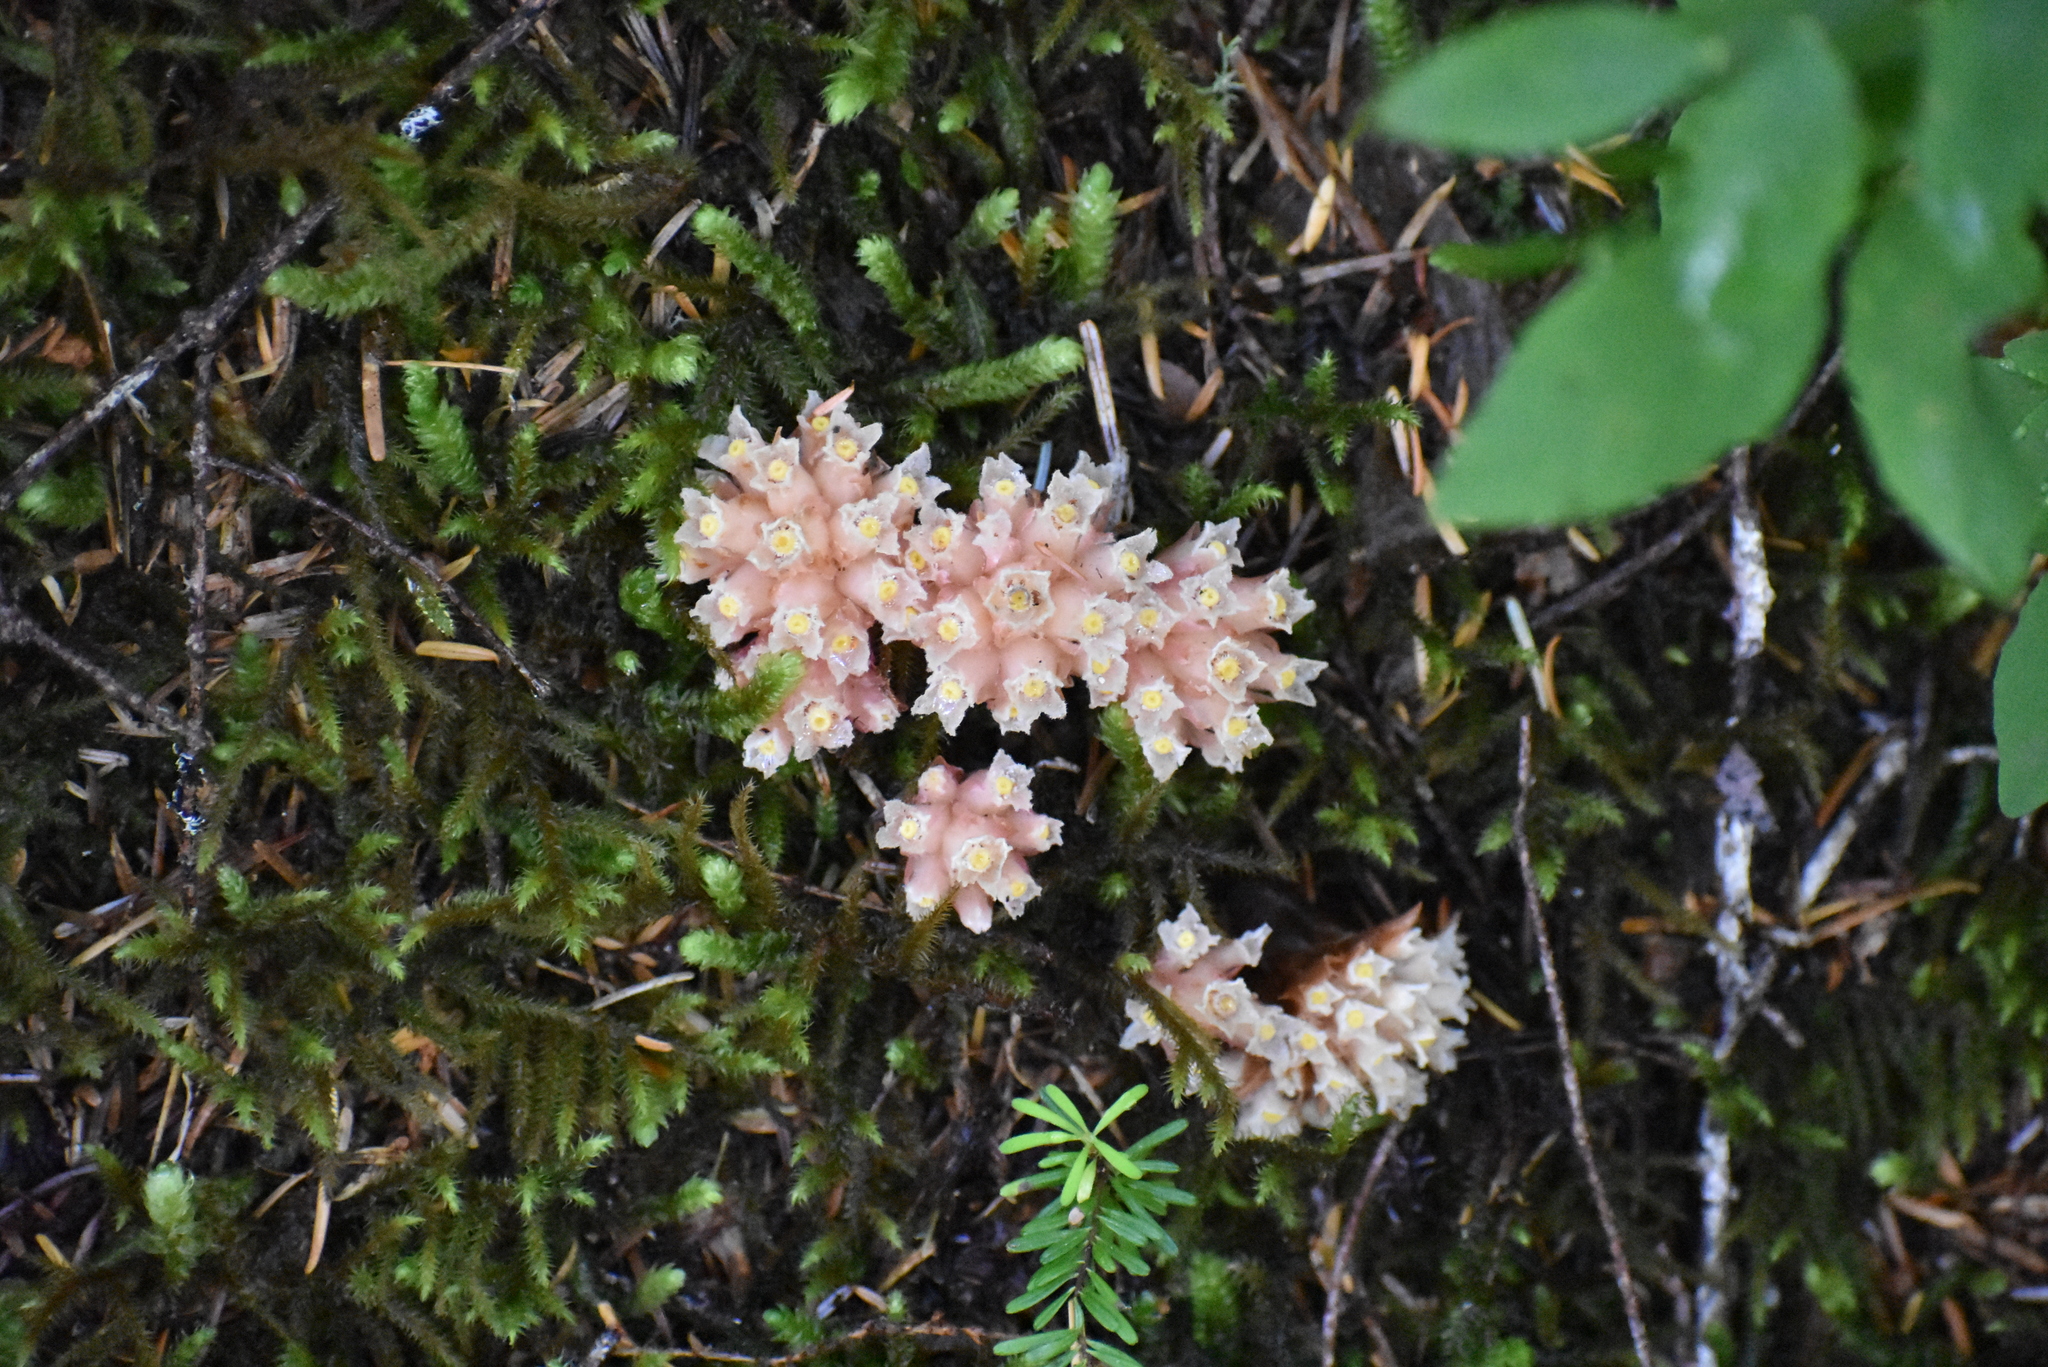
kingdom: Plantae
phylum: Tracheophyta
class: Magnoliopsida
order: Ericales
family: Ericaceae
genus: Hemitomes
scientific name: Hemitomes congestum
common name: Cone plant
